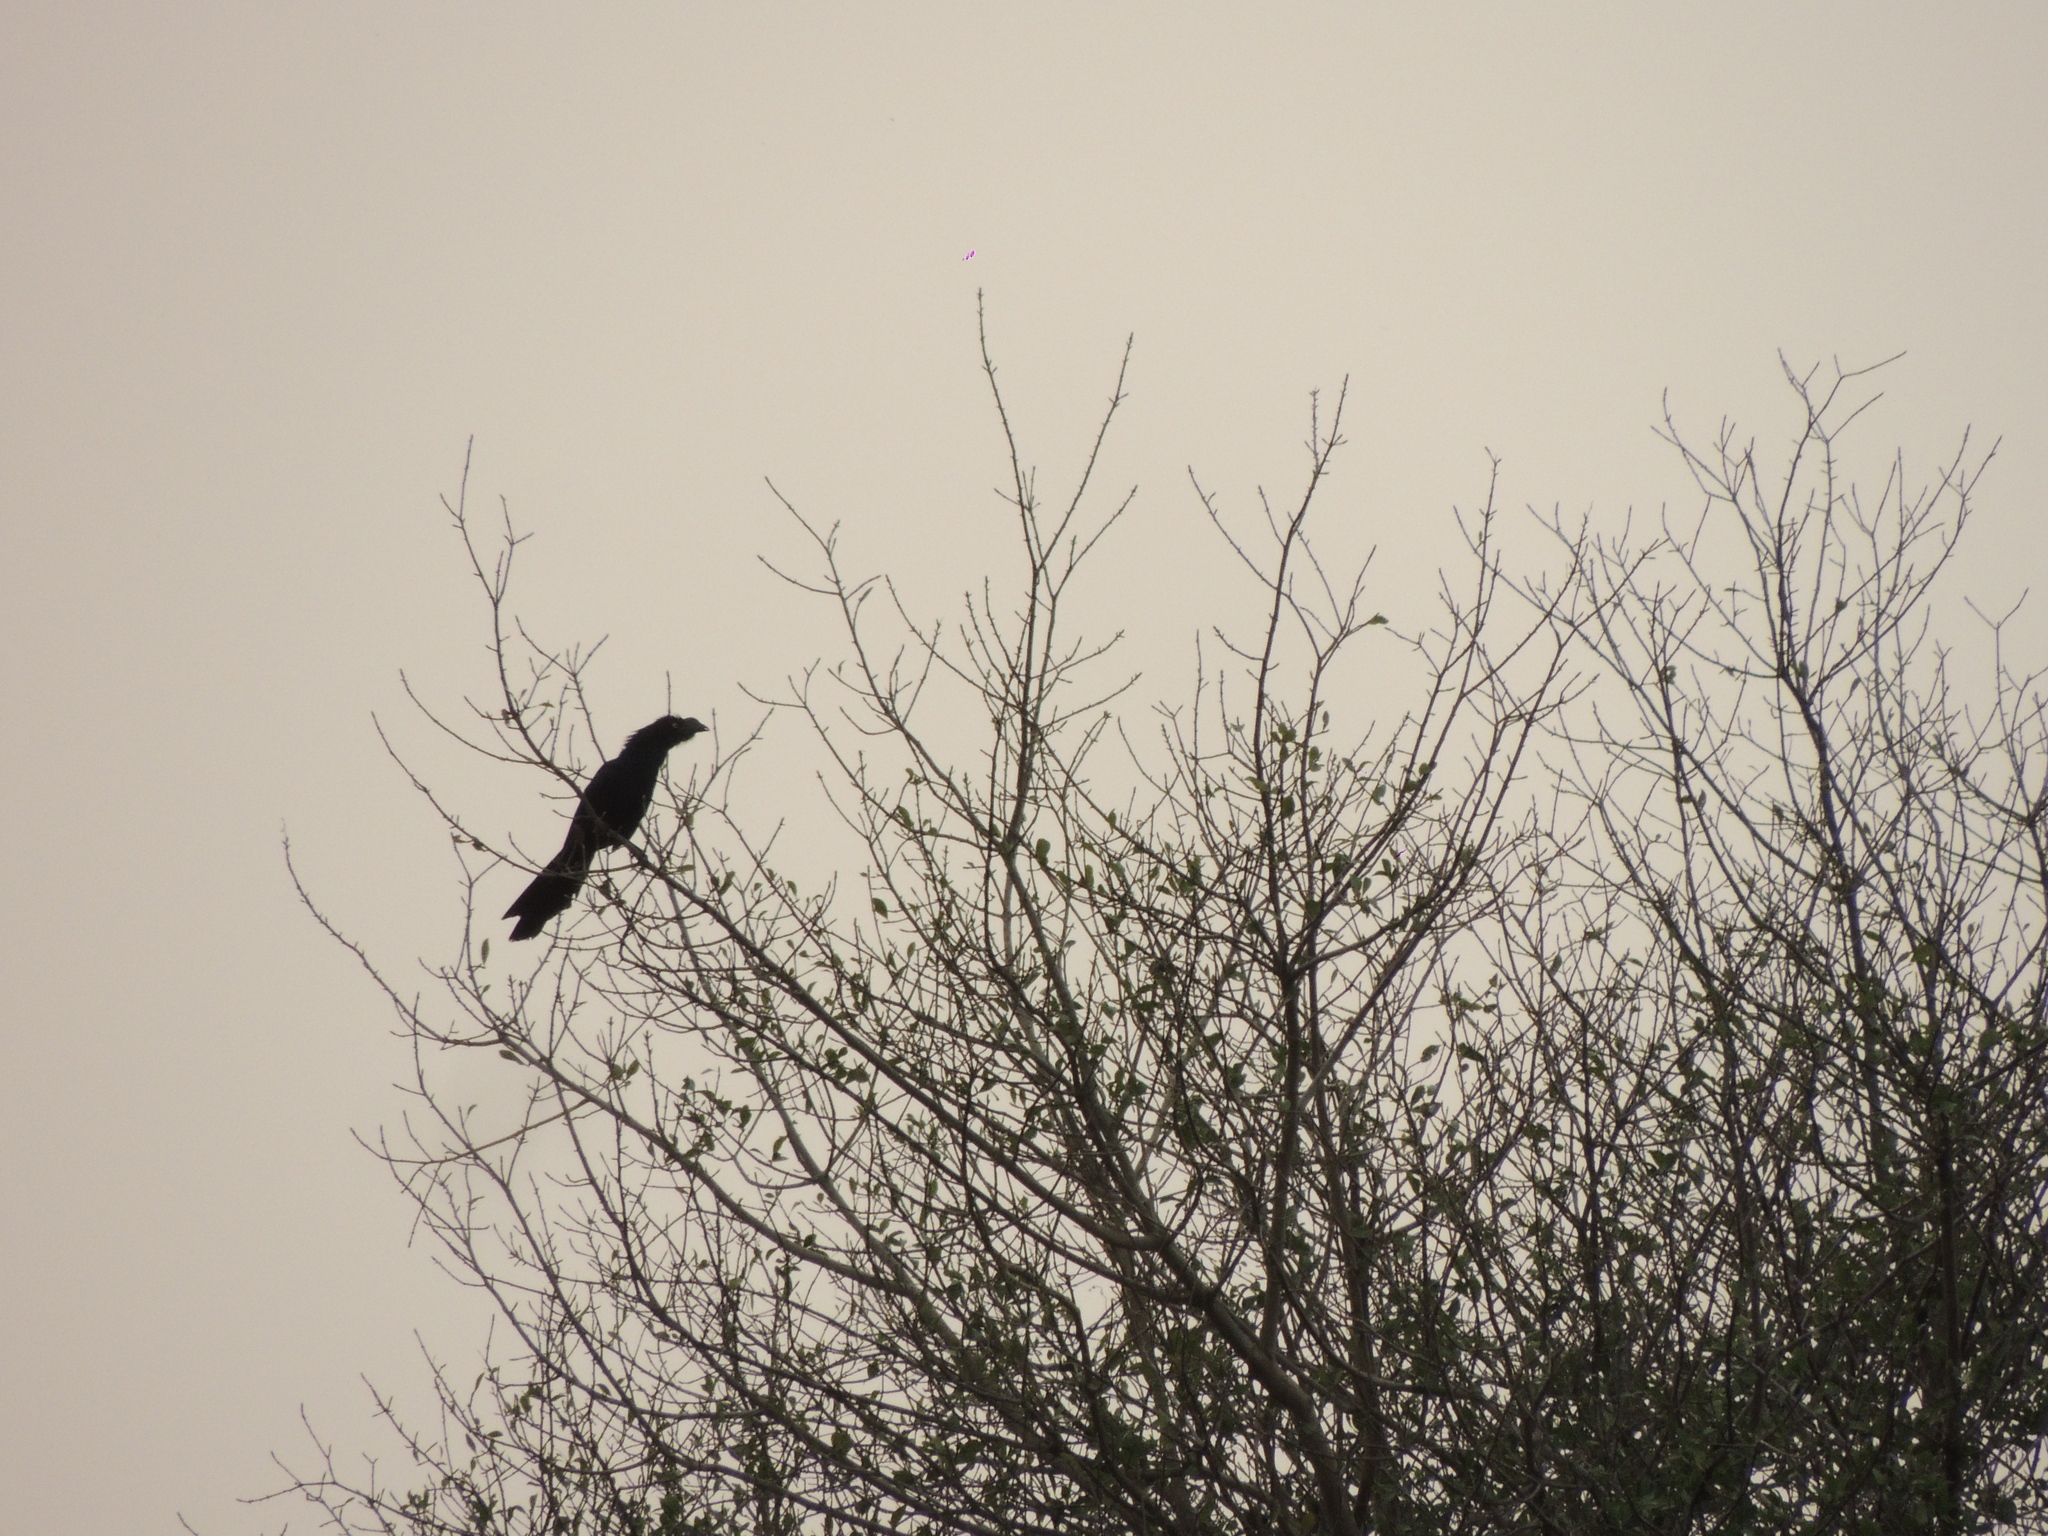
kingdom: Animalia
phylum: Chordata
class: Aves
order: Cuculiformes
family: Cuculidae
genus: Crotophaga
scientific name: Crotophaga major
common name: Greater ani
